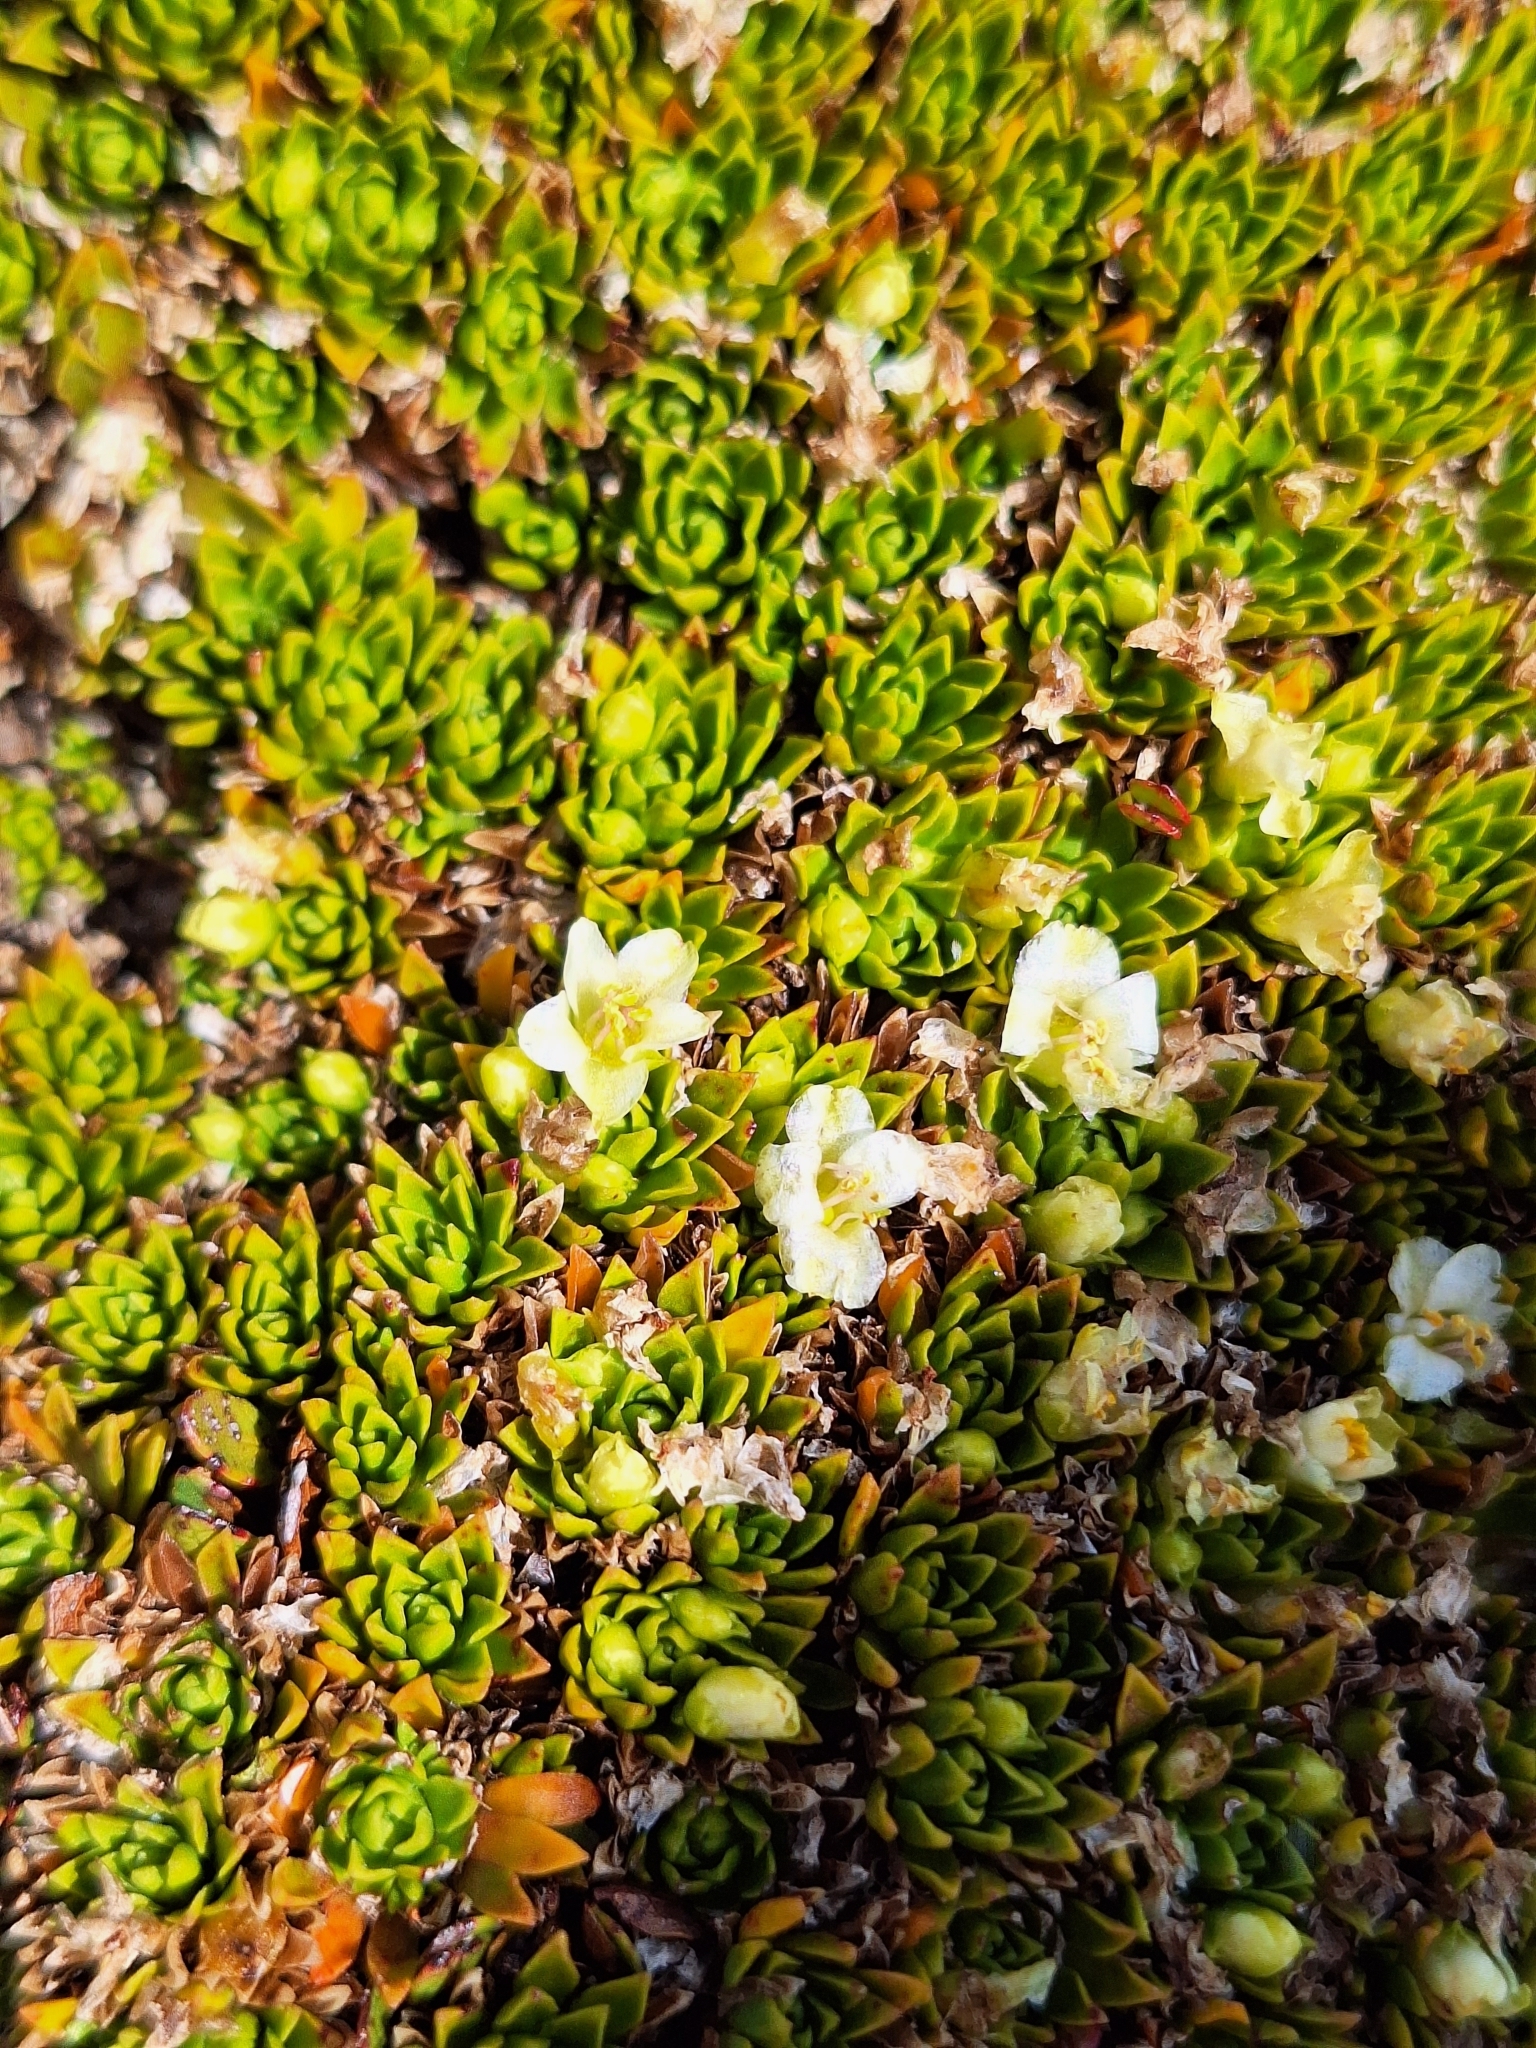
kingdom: Plantae
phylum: Tracheophyta
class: Magnoliopsida
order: Caryophyllales
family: Montiaceae
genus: Hectorella
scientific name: Hectorella caespitosa
